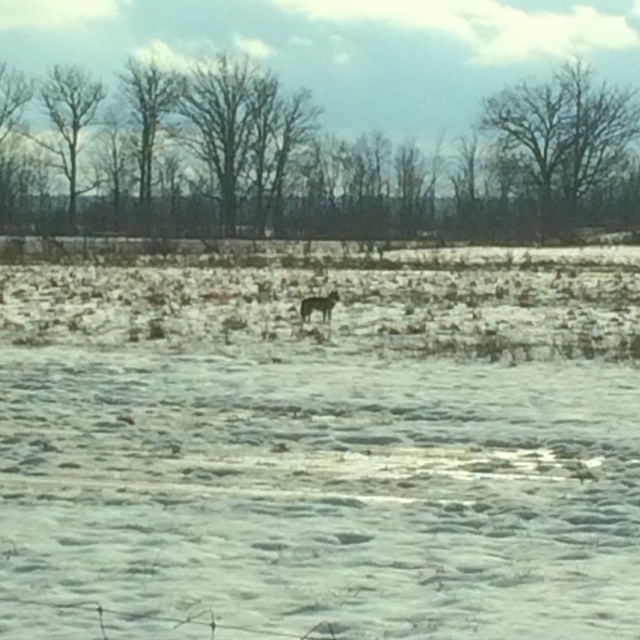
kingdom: Animalia
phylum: Chordata
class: Mammalia
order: Carnivora
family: Canidae
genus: Canis
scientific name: Canis latrans
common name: Coyote
